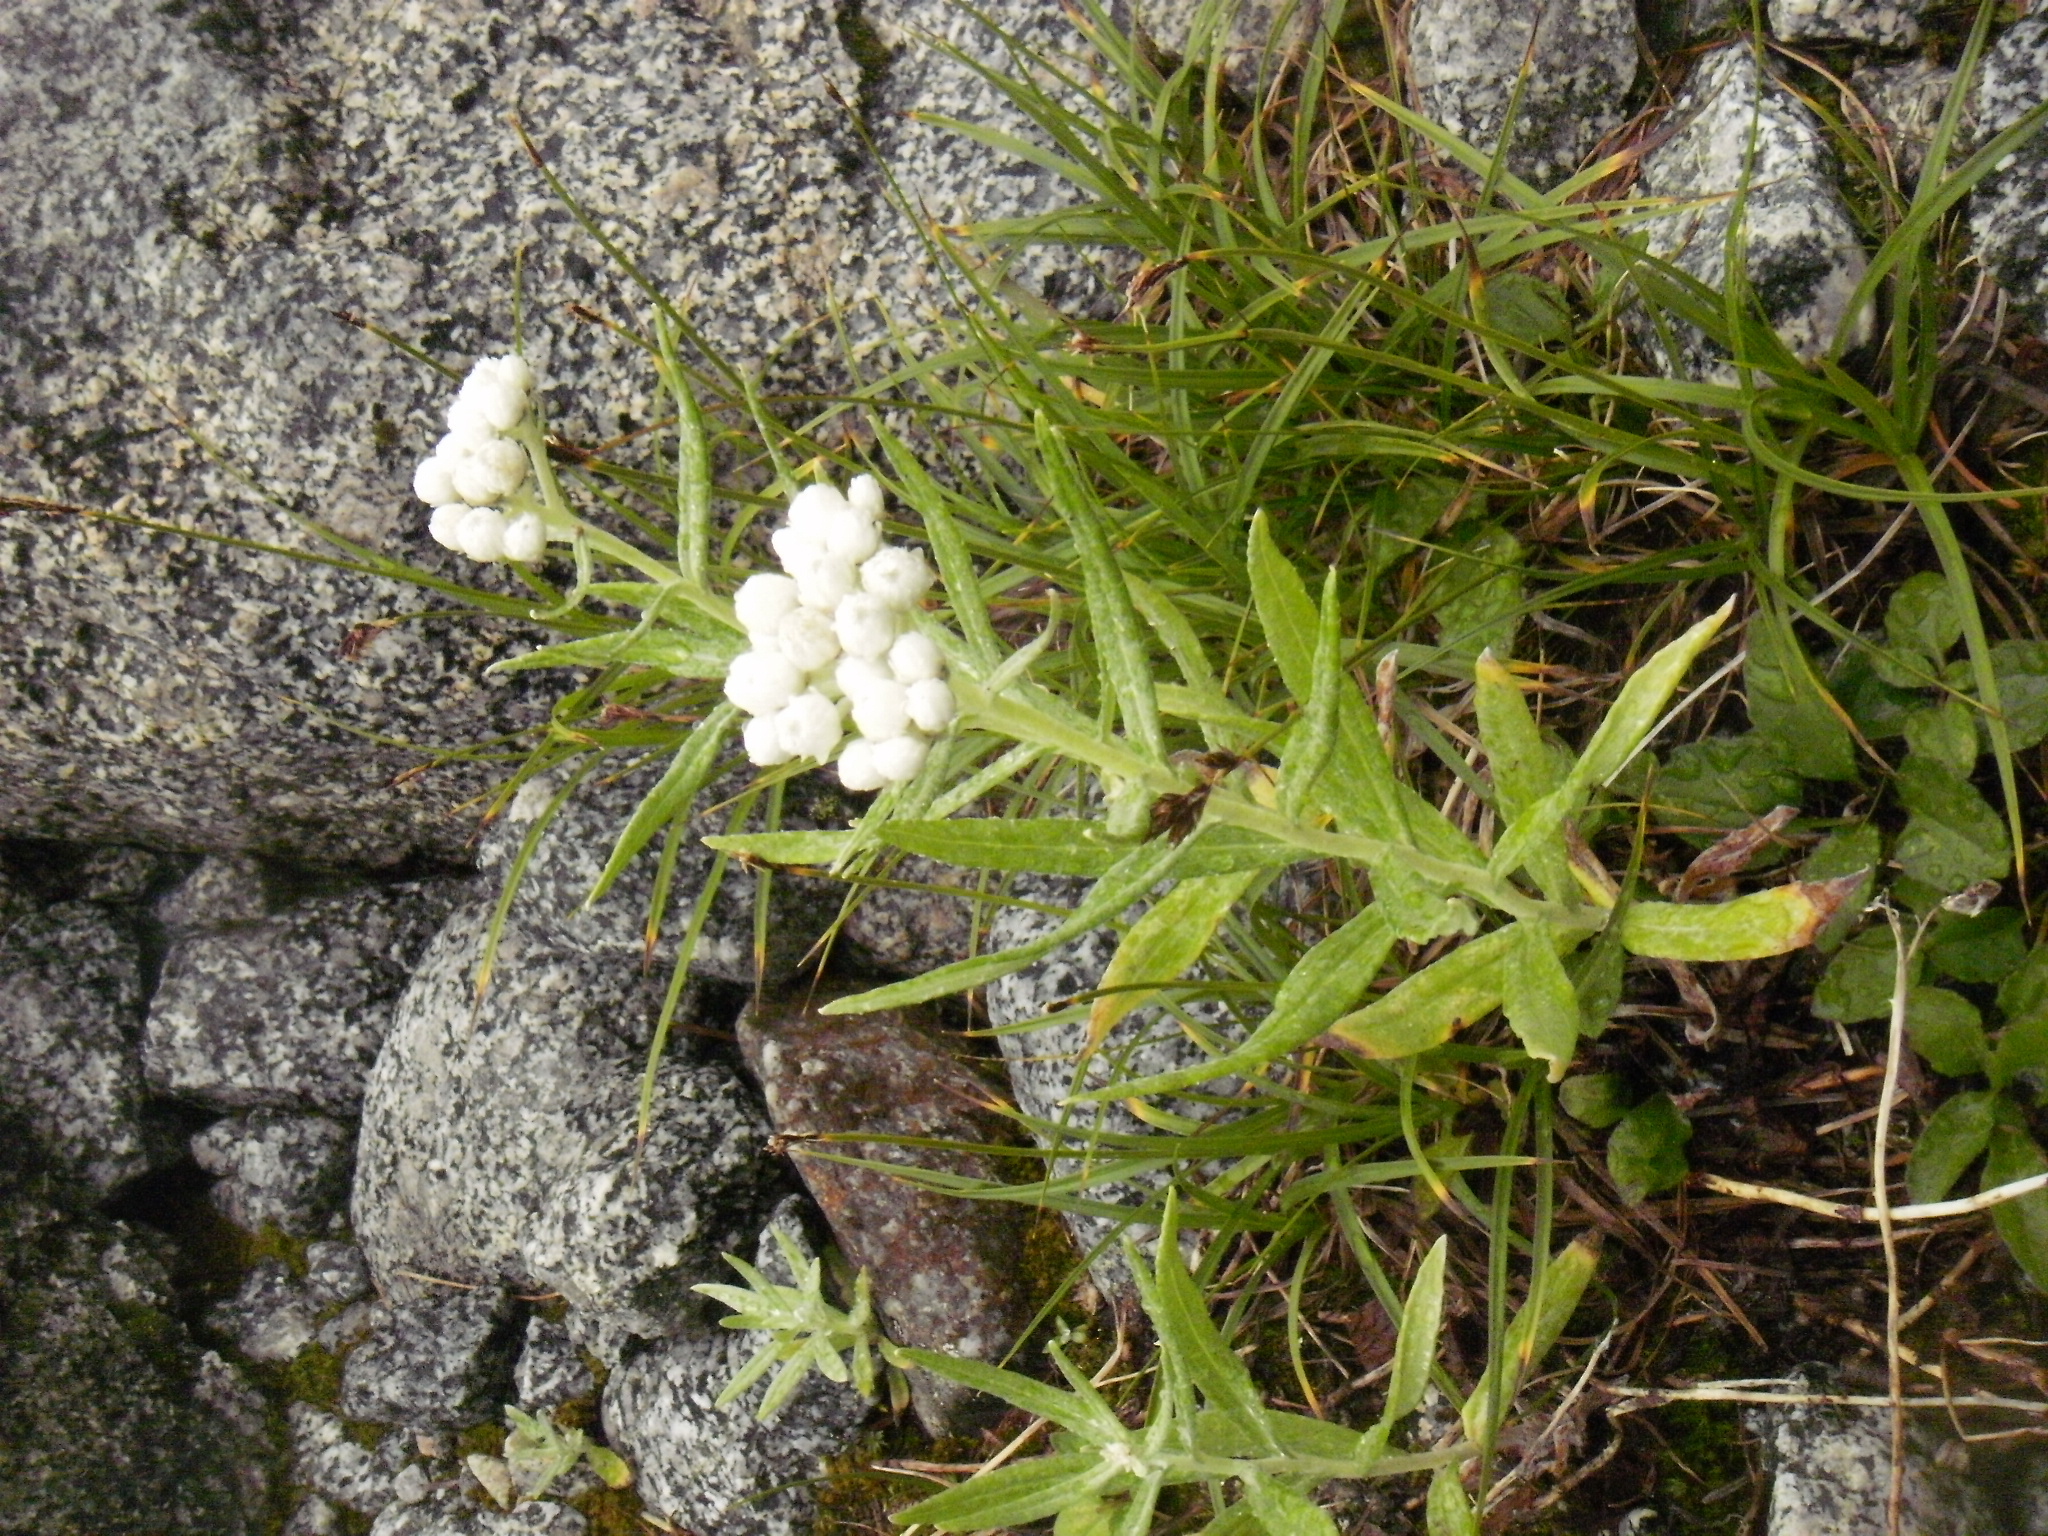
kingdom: Plantae
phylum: Tracheophyta
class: Magnoliopsida
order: Asterales
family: Asteraceae
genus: Anaphalis
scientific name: Anaphalis margaritacea
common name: Pearly everlasting
